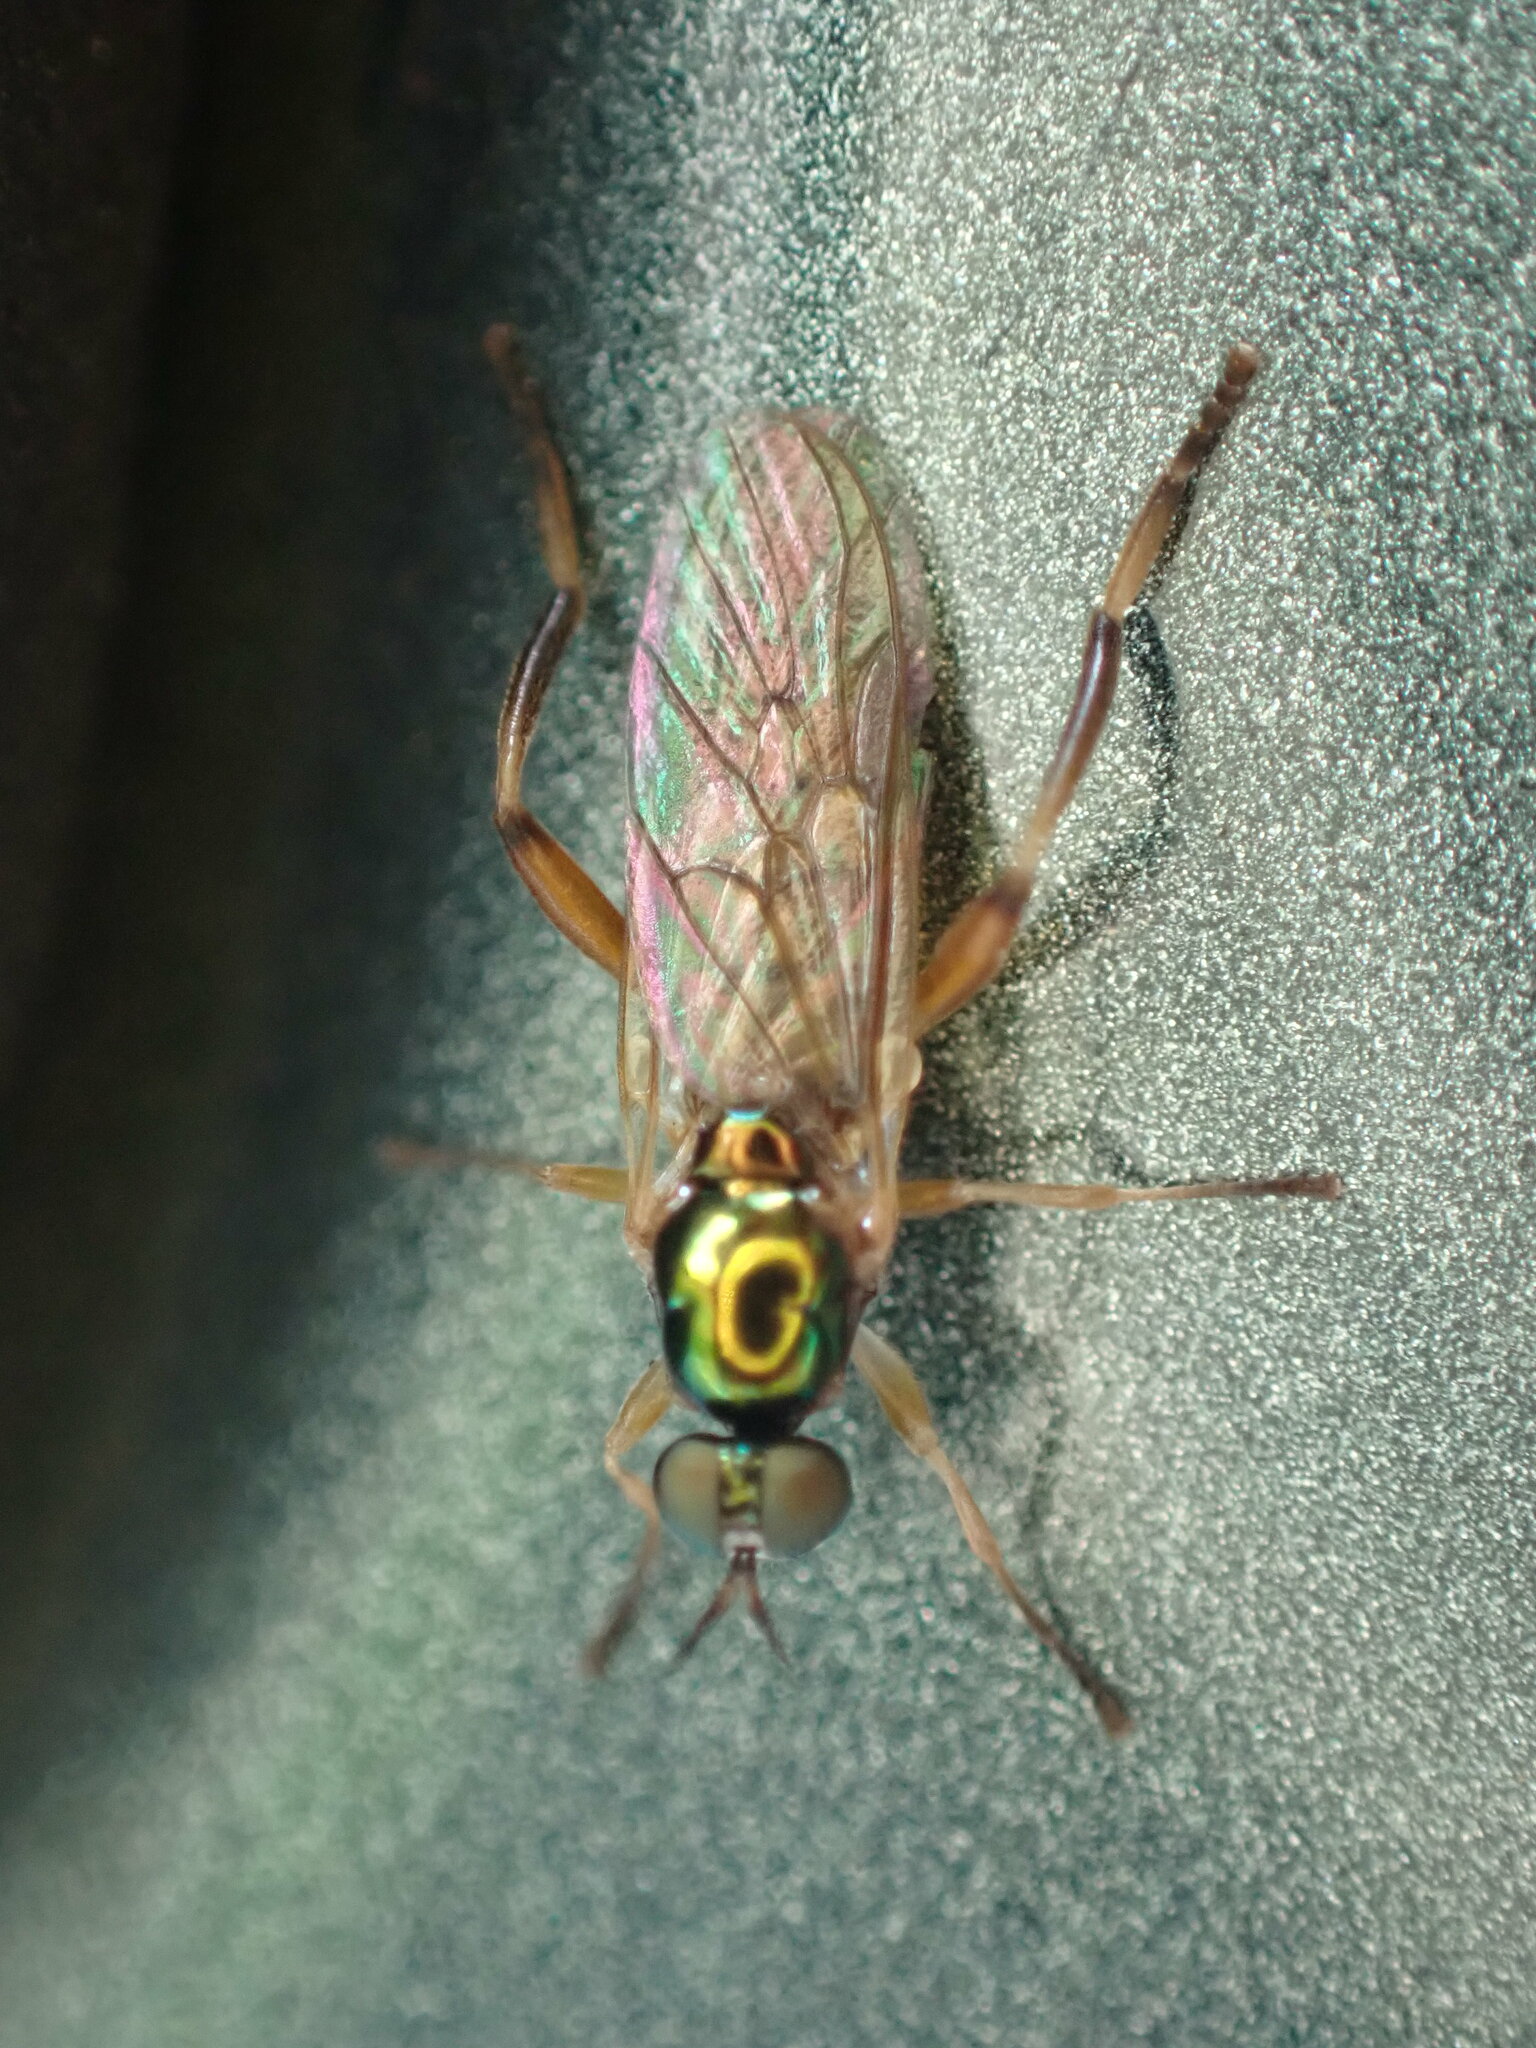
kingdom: Animalia
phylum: Arthropoda
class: Insecta
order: Diptera
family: Stratiomyidae
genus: Chorisops
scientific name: Chorisops nagatomii
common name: Bright four-spined legionnaire
